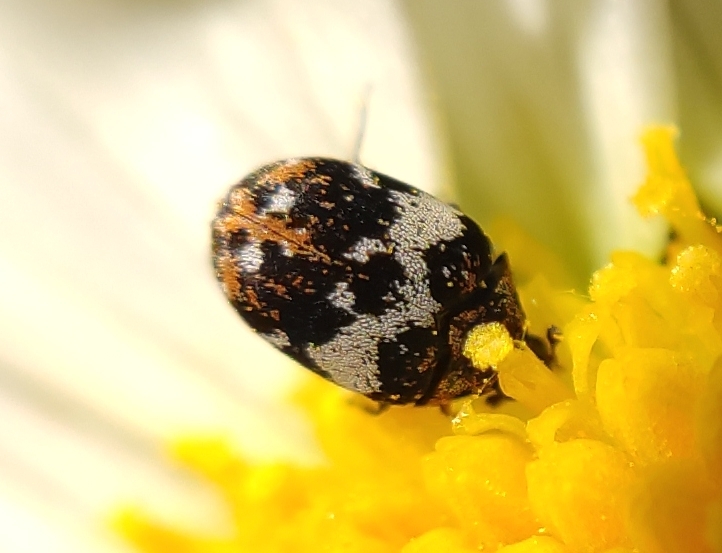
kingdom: Animalia
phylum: Arthropoda
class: Insecta
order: Coleoptera
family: Dermestidae
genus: Anthrenus
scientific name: Anthrenus pimpinellae
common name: Dermestid beetle
